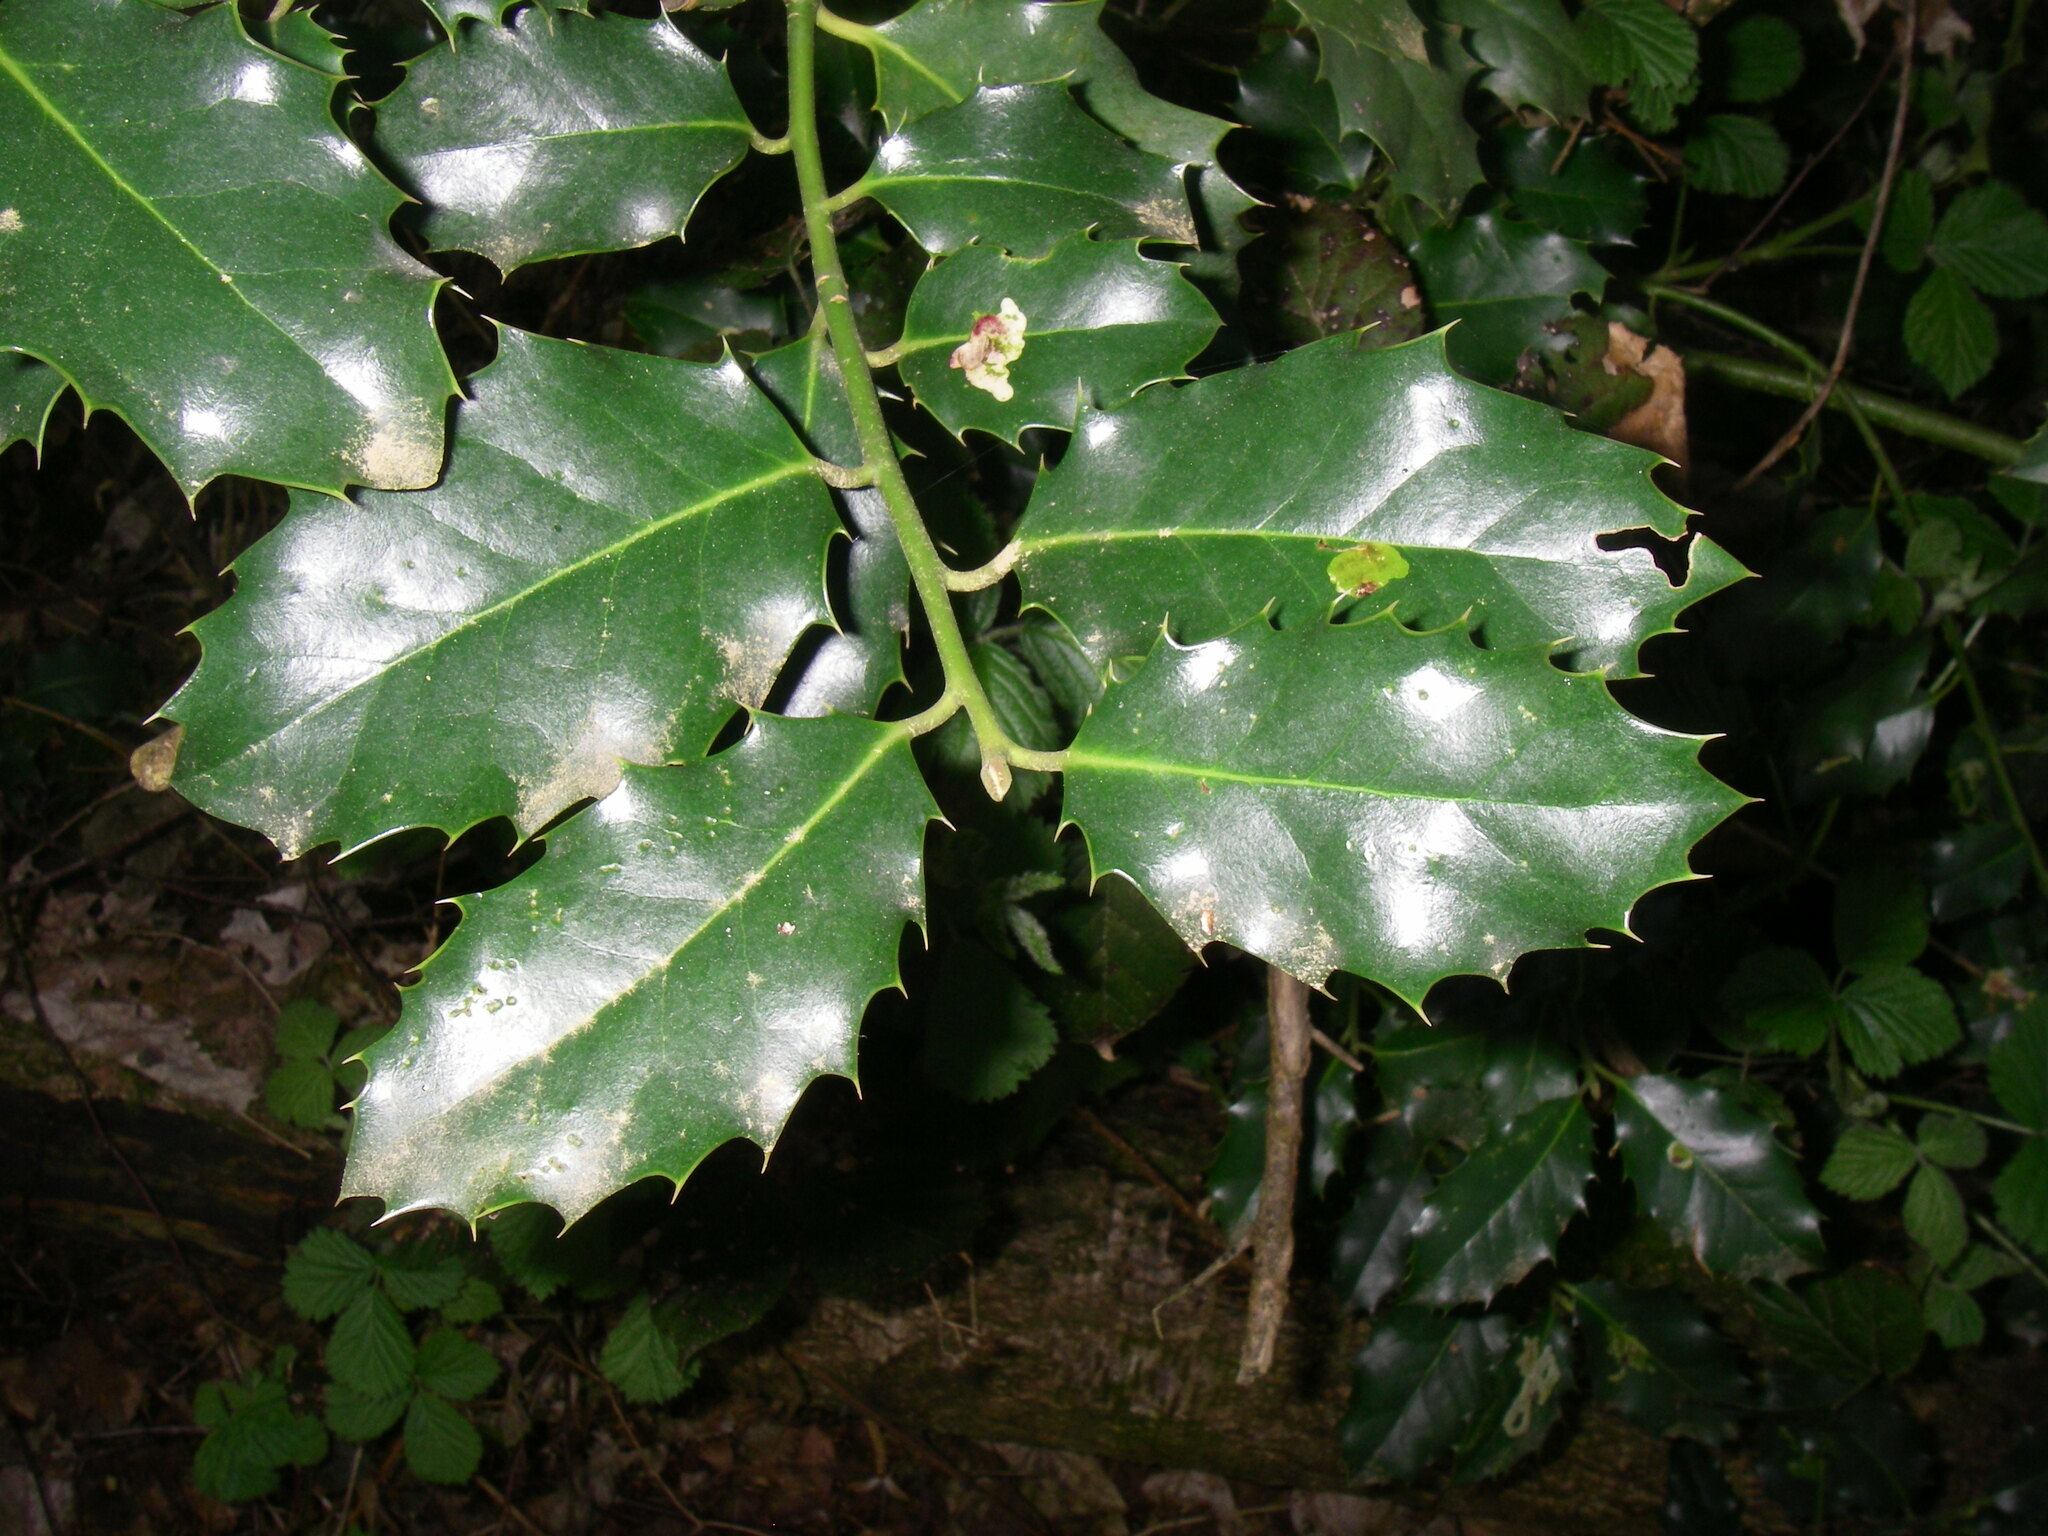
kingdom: Plantae
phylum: Tracheophyta
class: Magnoliopsida
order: Aquifoliales
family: Aquifoliaceae
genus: Ilex
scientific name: Ilex aquifolium
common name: English holly
